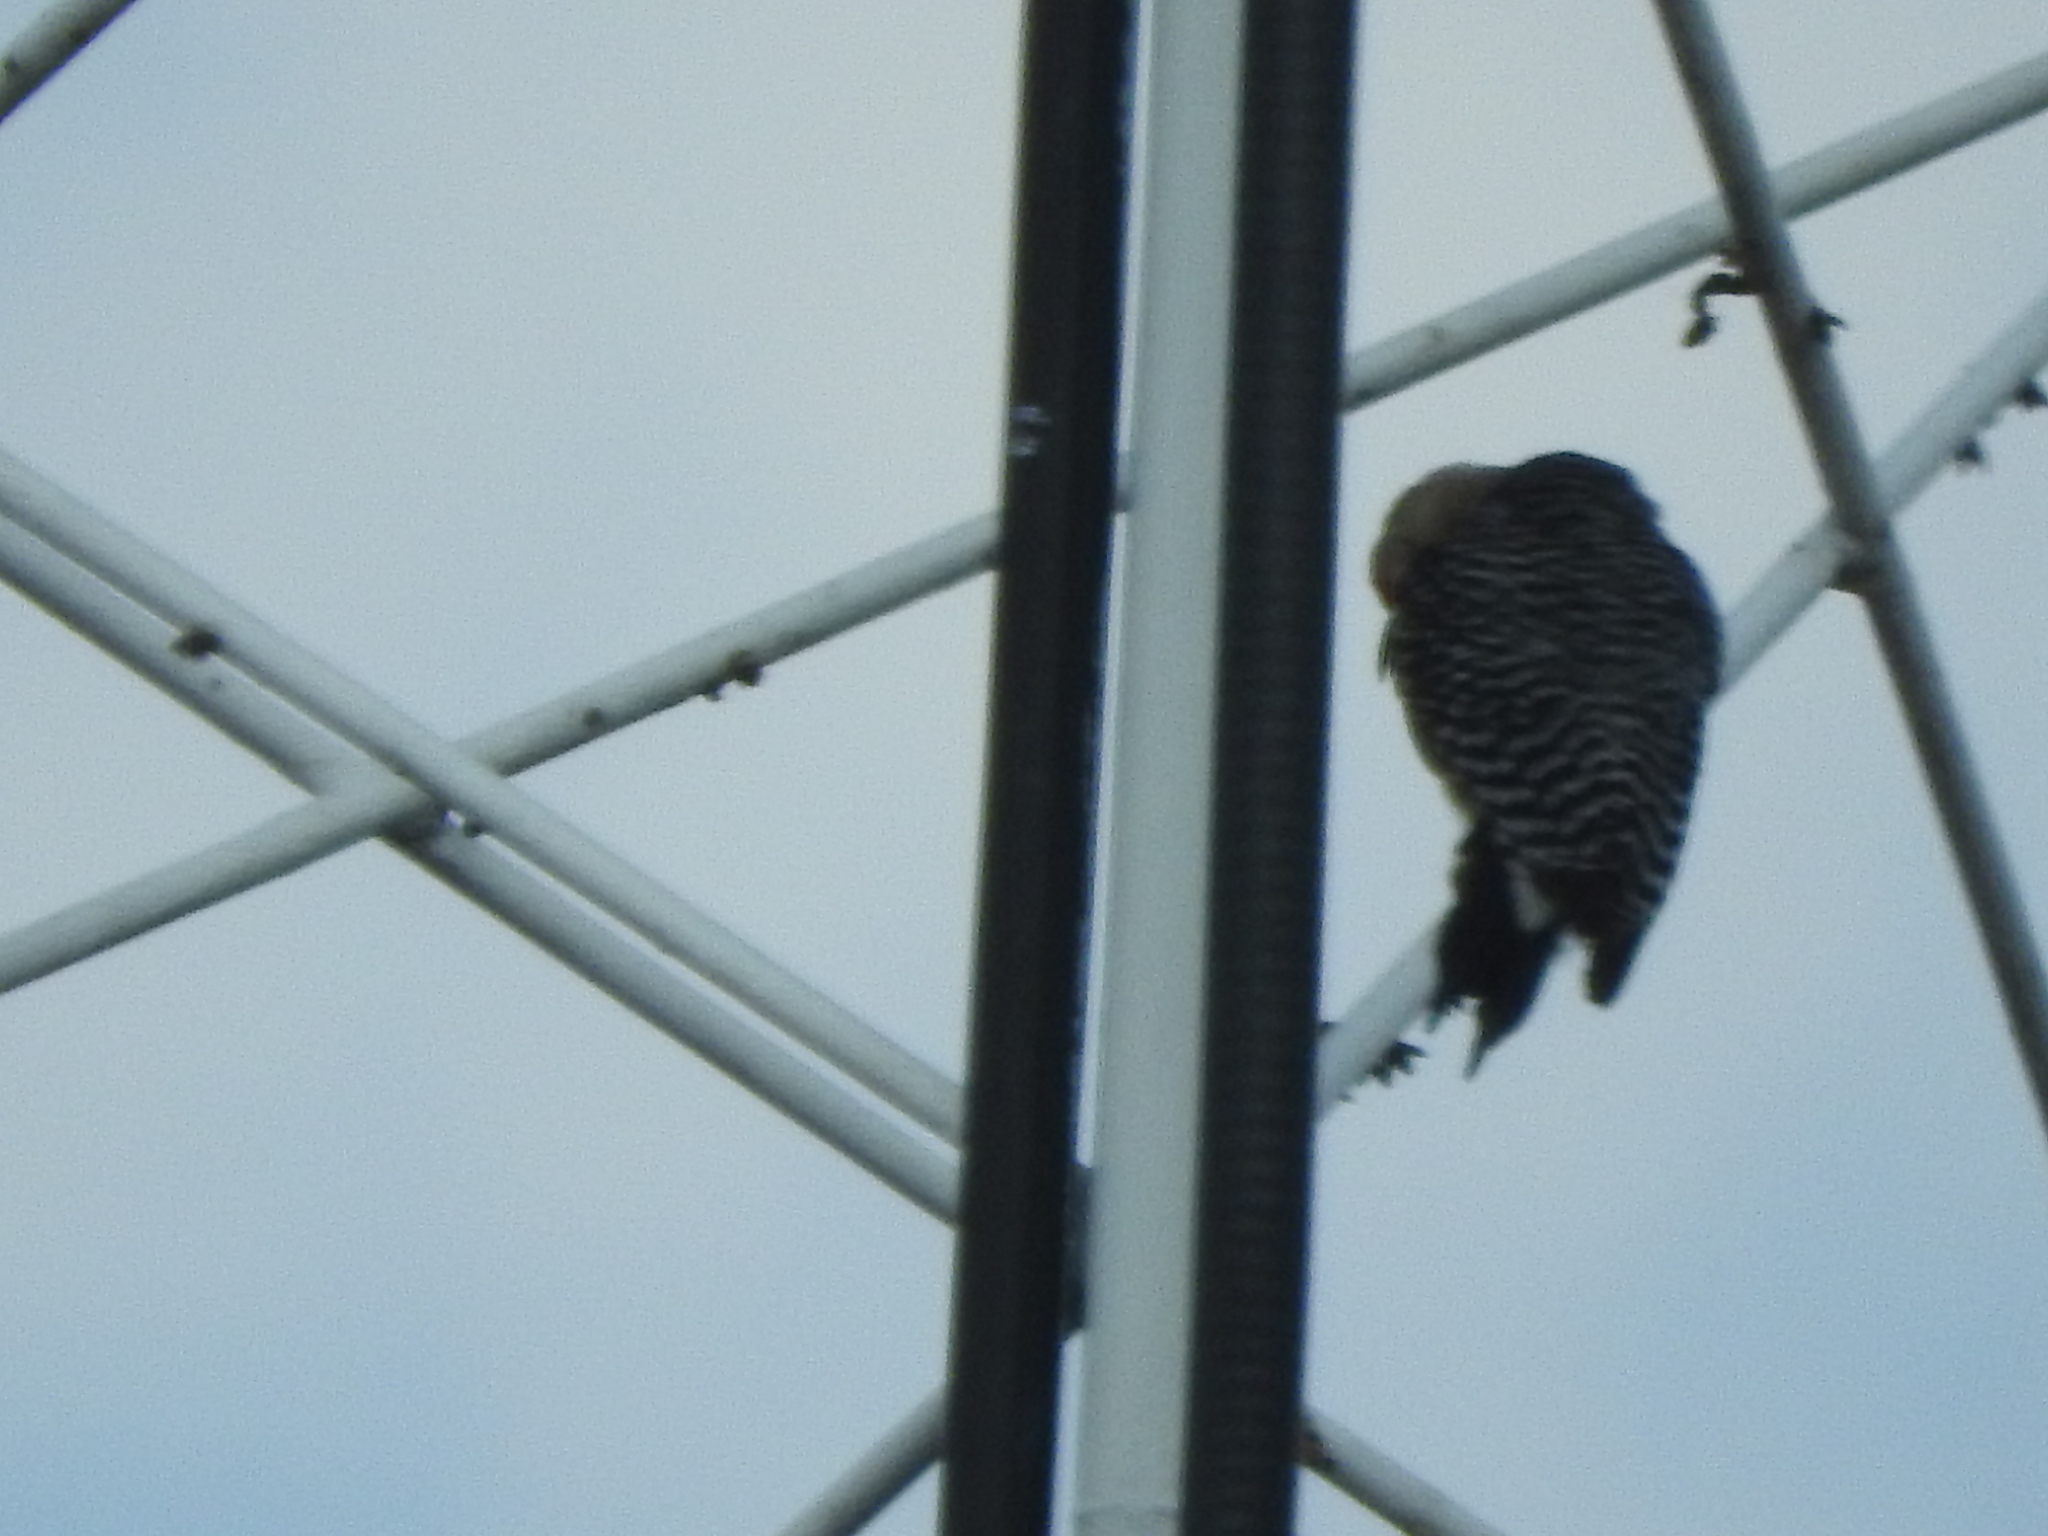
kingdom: Animalia
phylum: Chordata
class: Aves
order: Piciformes
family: Picidae
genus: Melanerpes
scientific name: Melanerpes aurifrons
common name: Golden-fronted woodpecker
